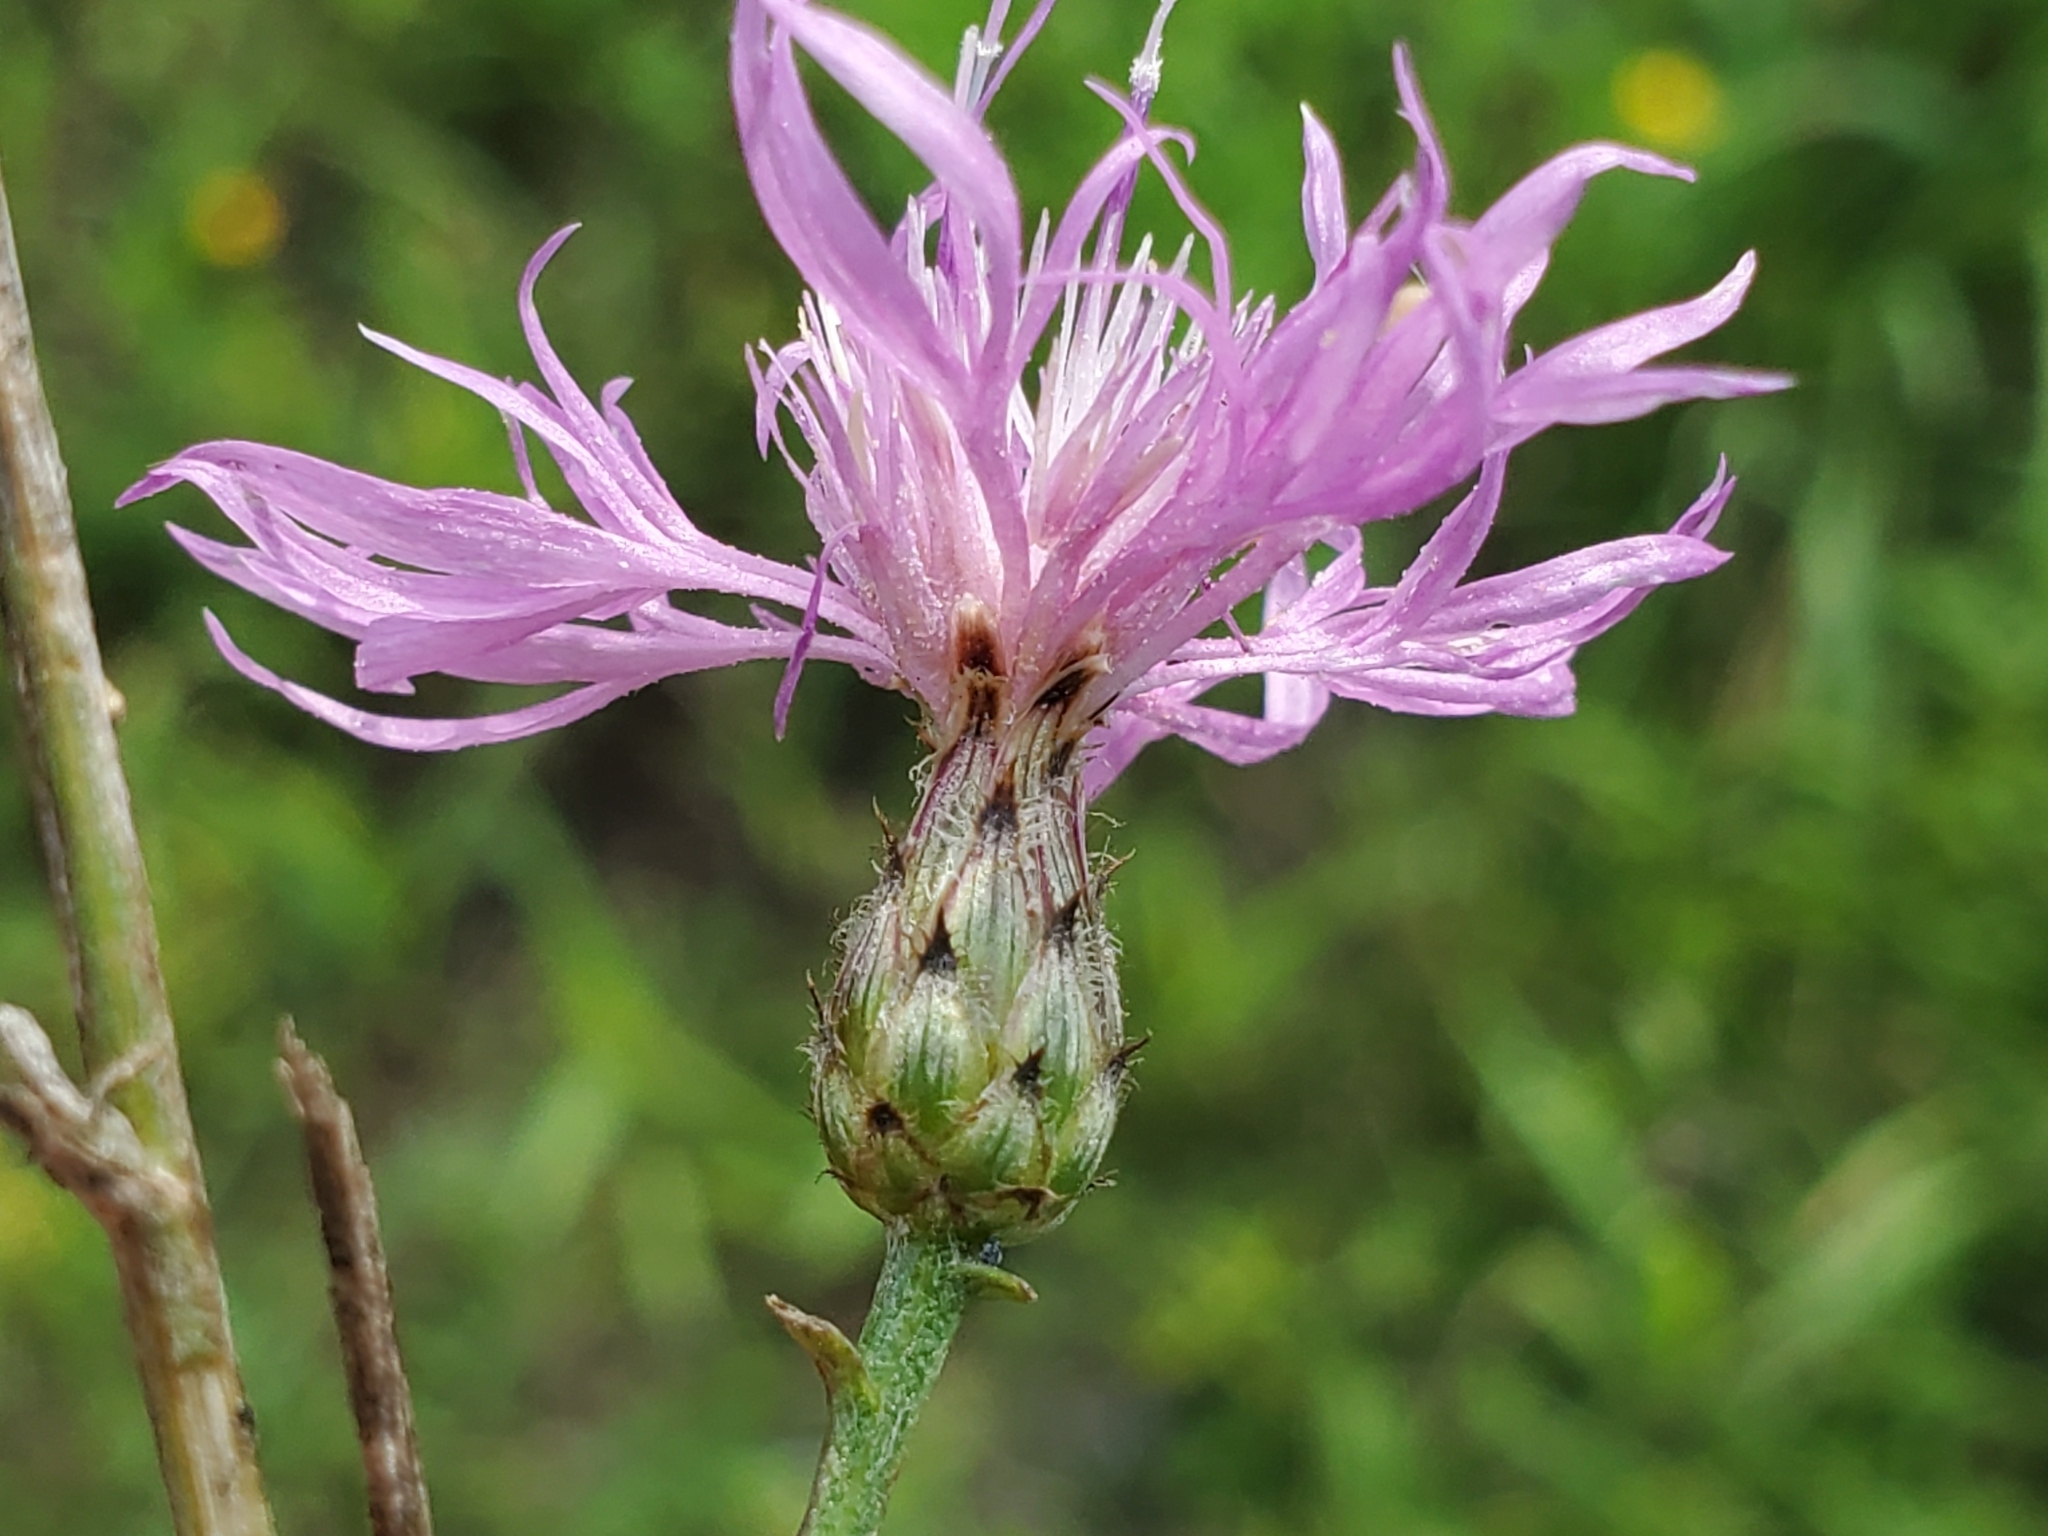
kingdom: Plantae
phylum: Tracheophyta
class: Magnoliopsida
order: Asterales
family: Asteraceae
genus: Centaurea
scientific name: Centaurea stoebe
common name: Spotted knapweed
